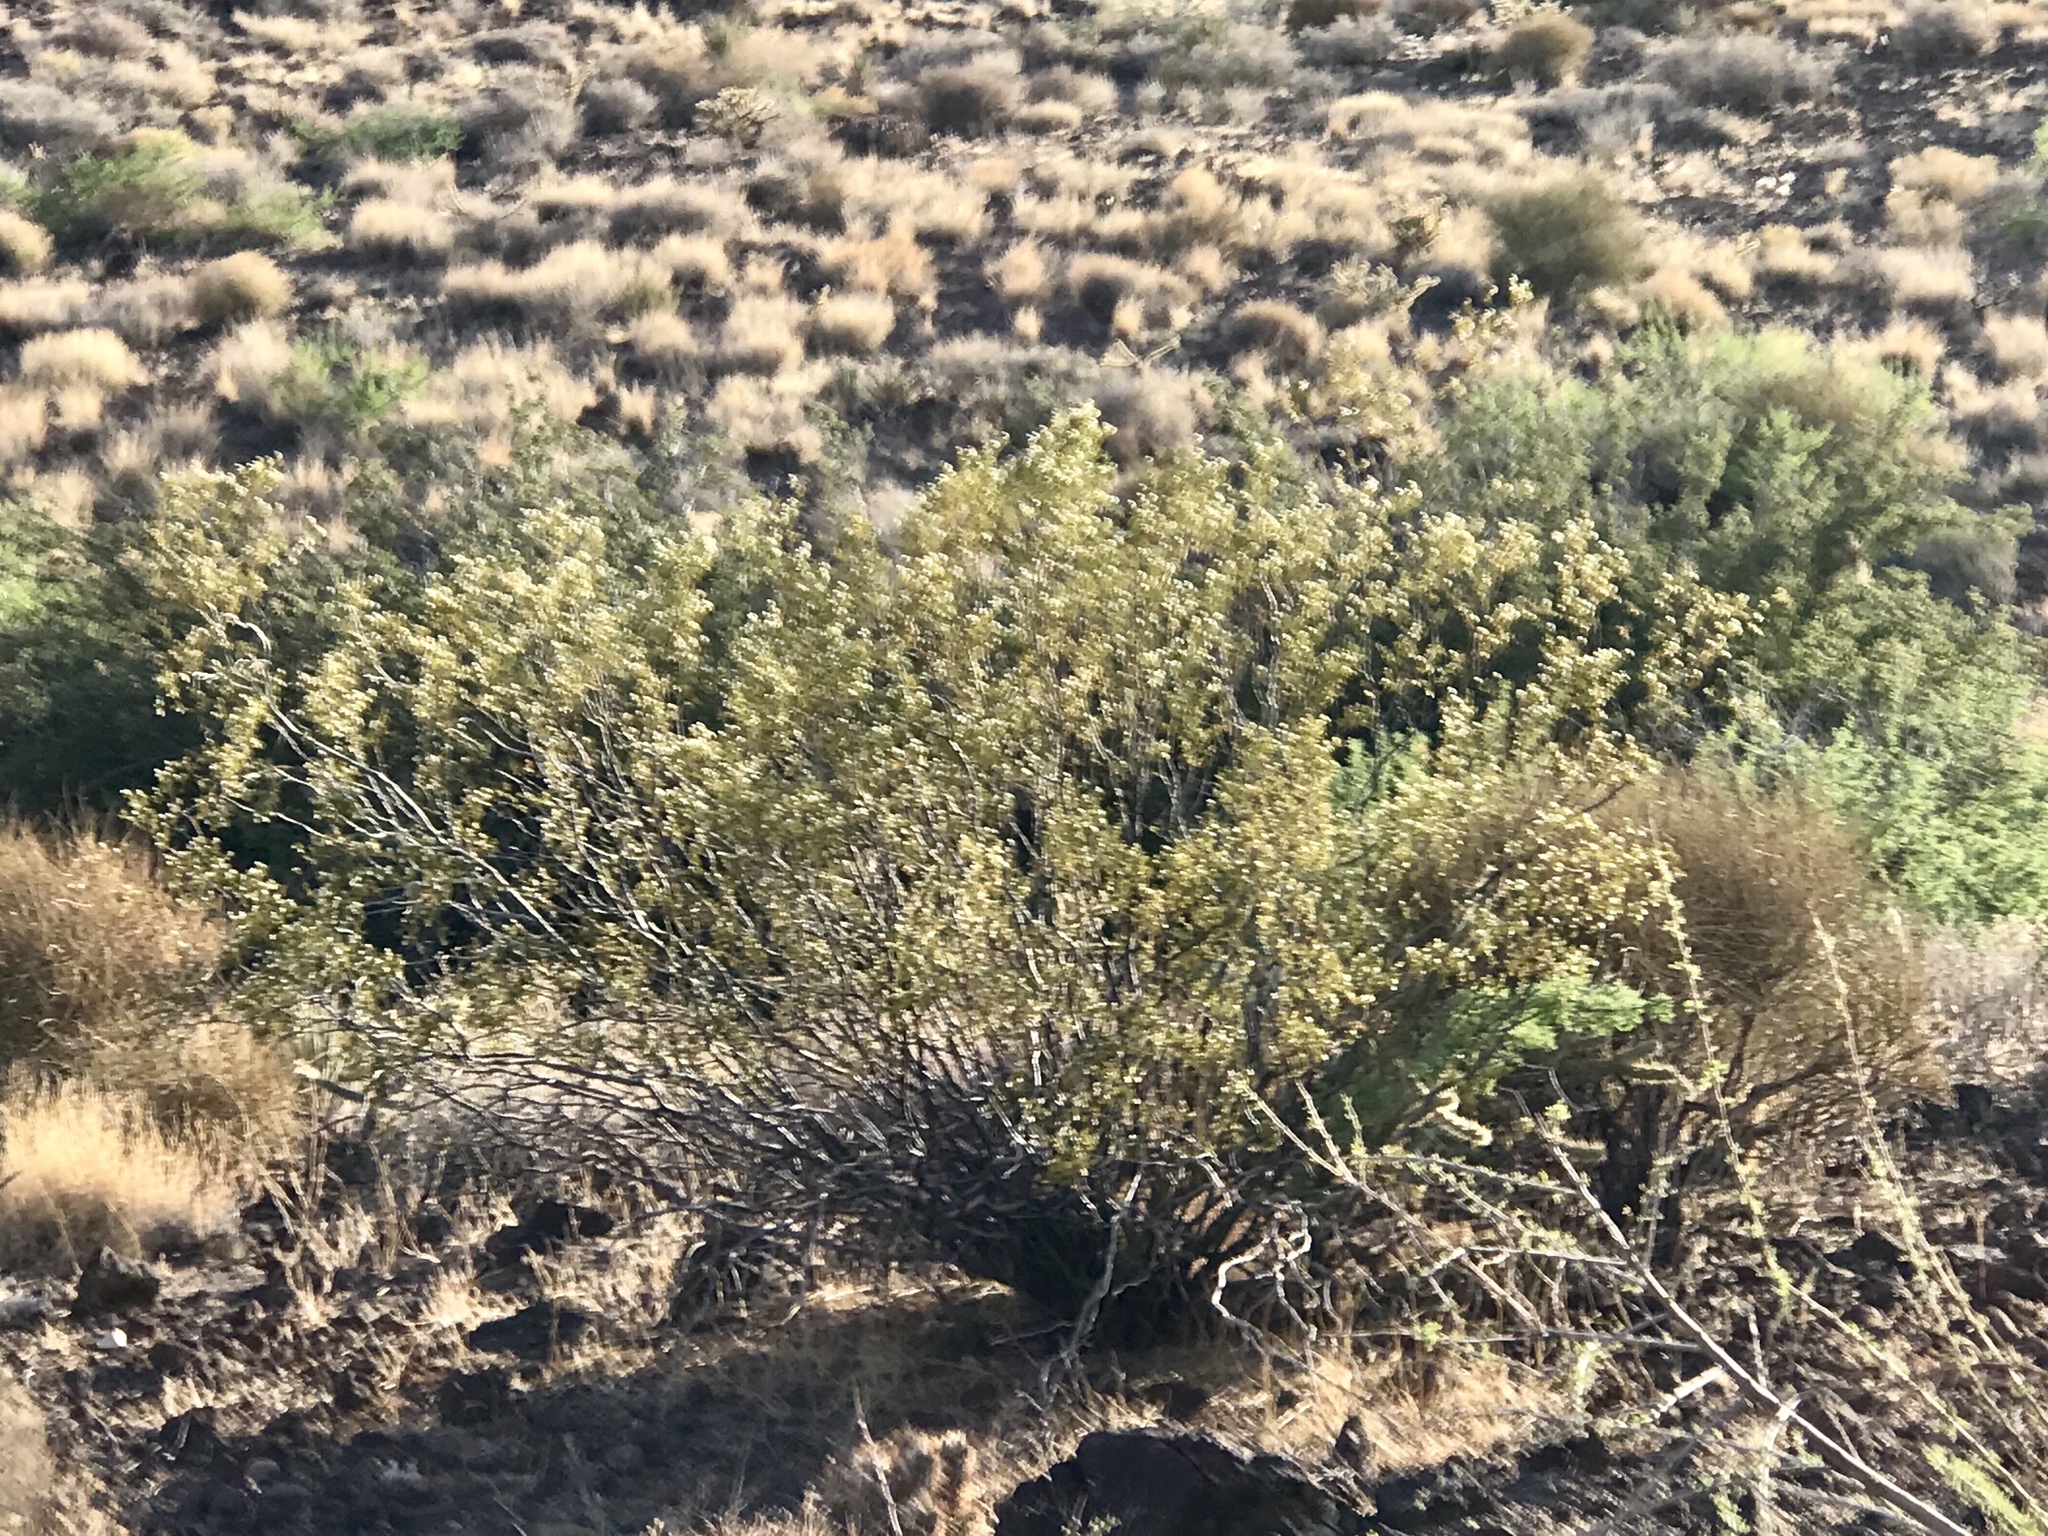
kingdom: Plantae
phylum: Tracheophyta
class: Magnoliopsida
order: Zygophyllales
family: Zygophyllaceae
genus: Larrea
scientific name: Larrea tridentata
